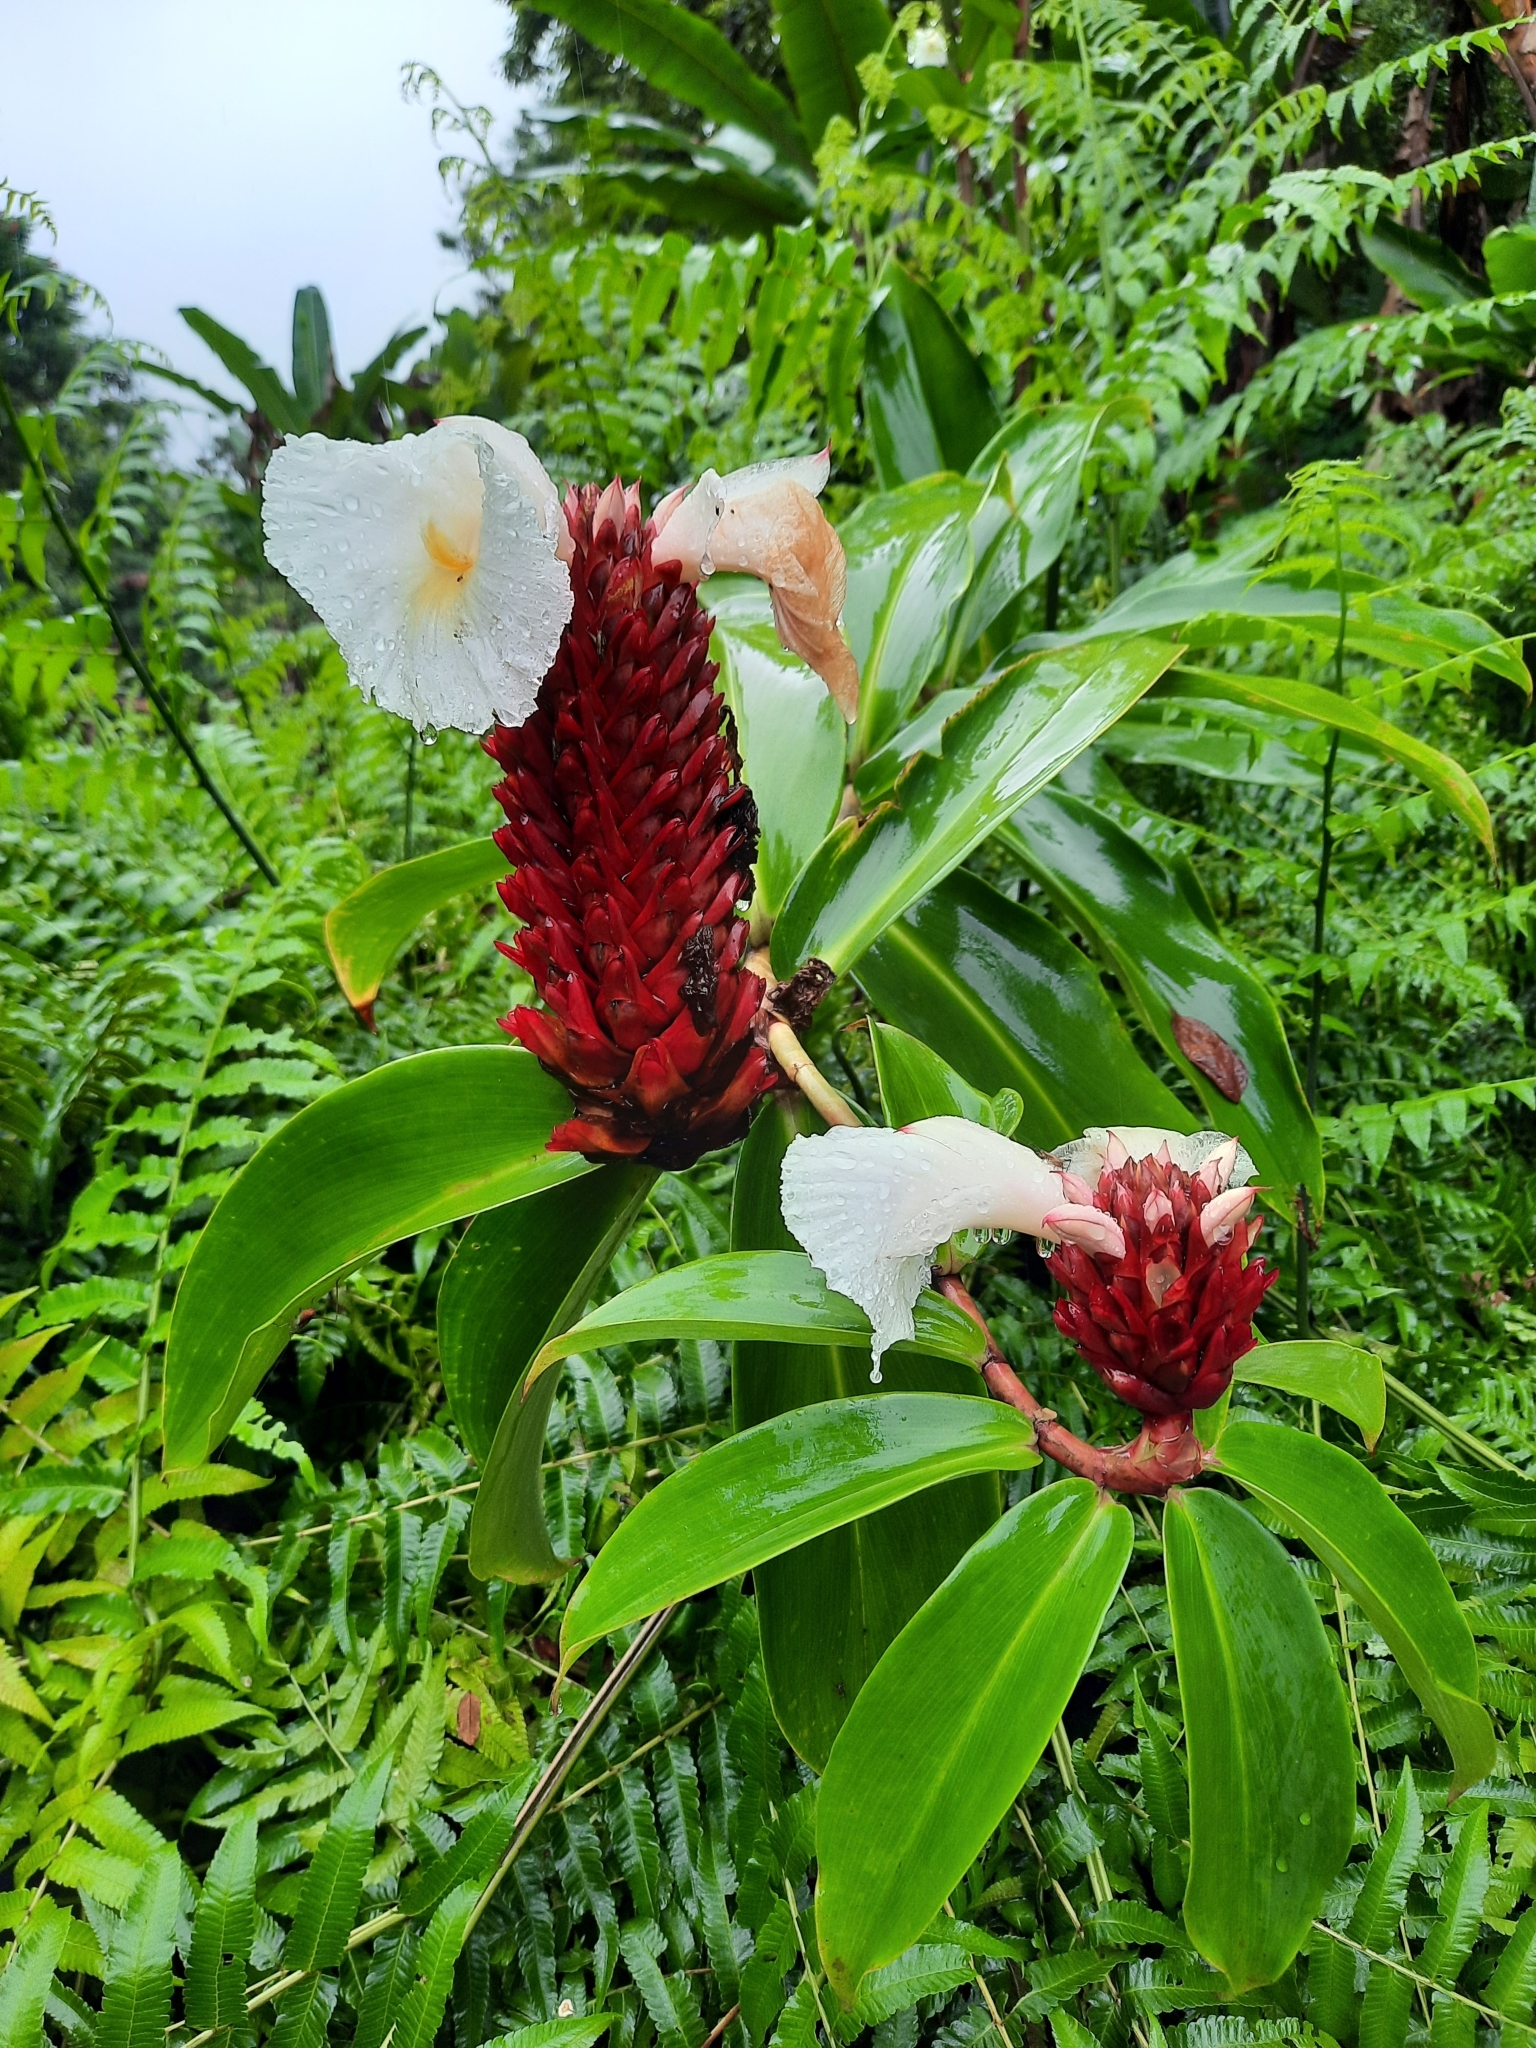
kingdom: Plantae
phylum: Tracheophyta
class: Liliopsida
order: Zingiberales
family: Costaceae
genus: Hellenia
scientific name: Hellenia speciosa
